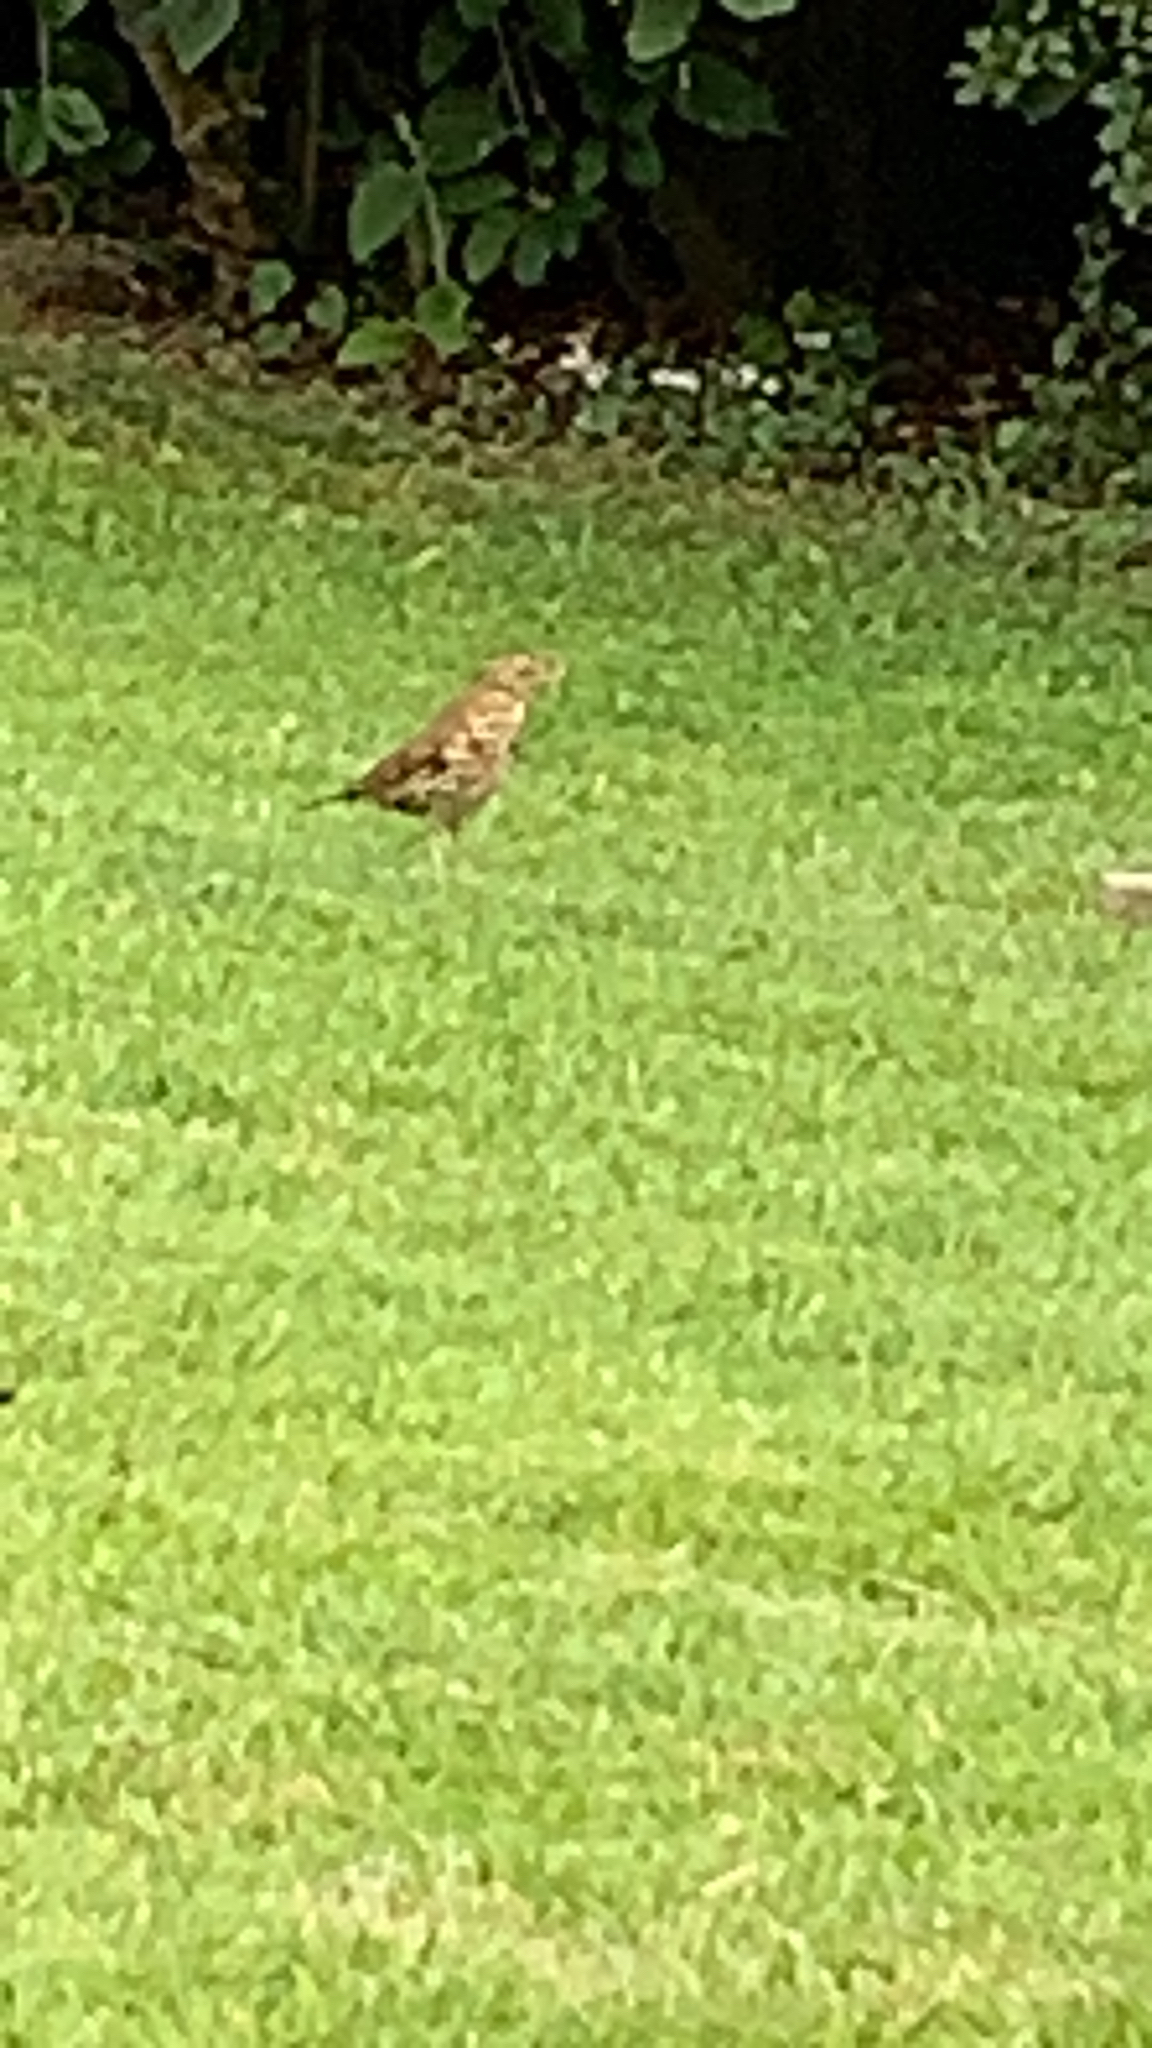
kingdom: Animalia
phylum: Chordata
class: Aves
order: Passeriformes
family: Turdidae
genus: Turdus
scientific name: Turdus philomelos
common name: Song thrush
